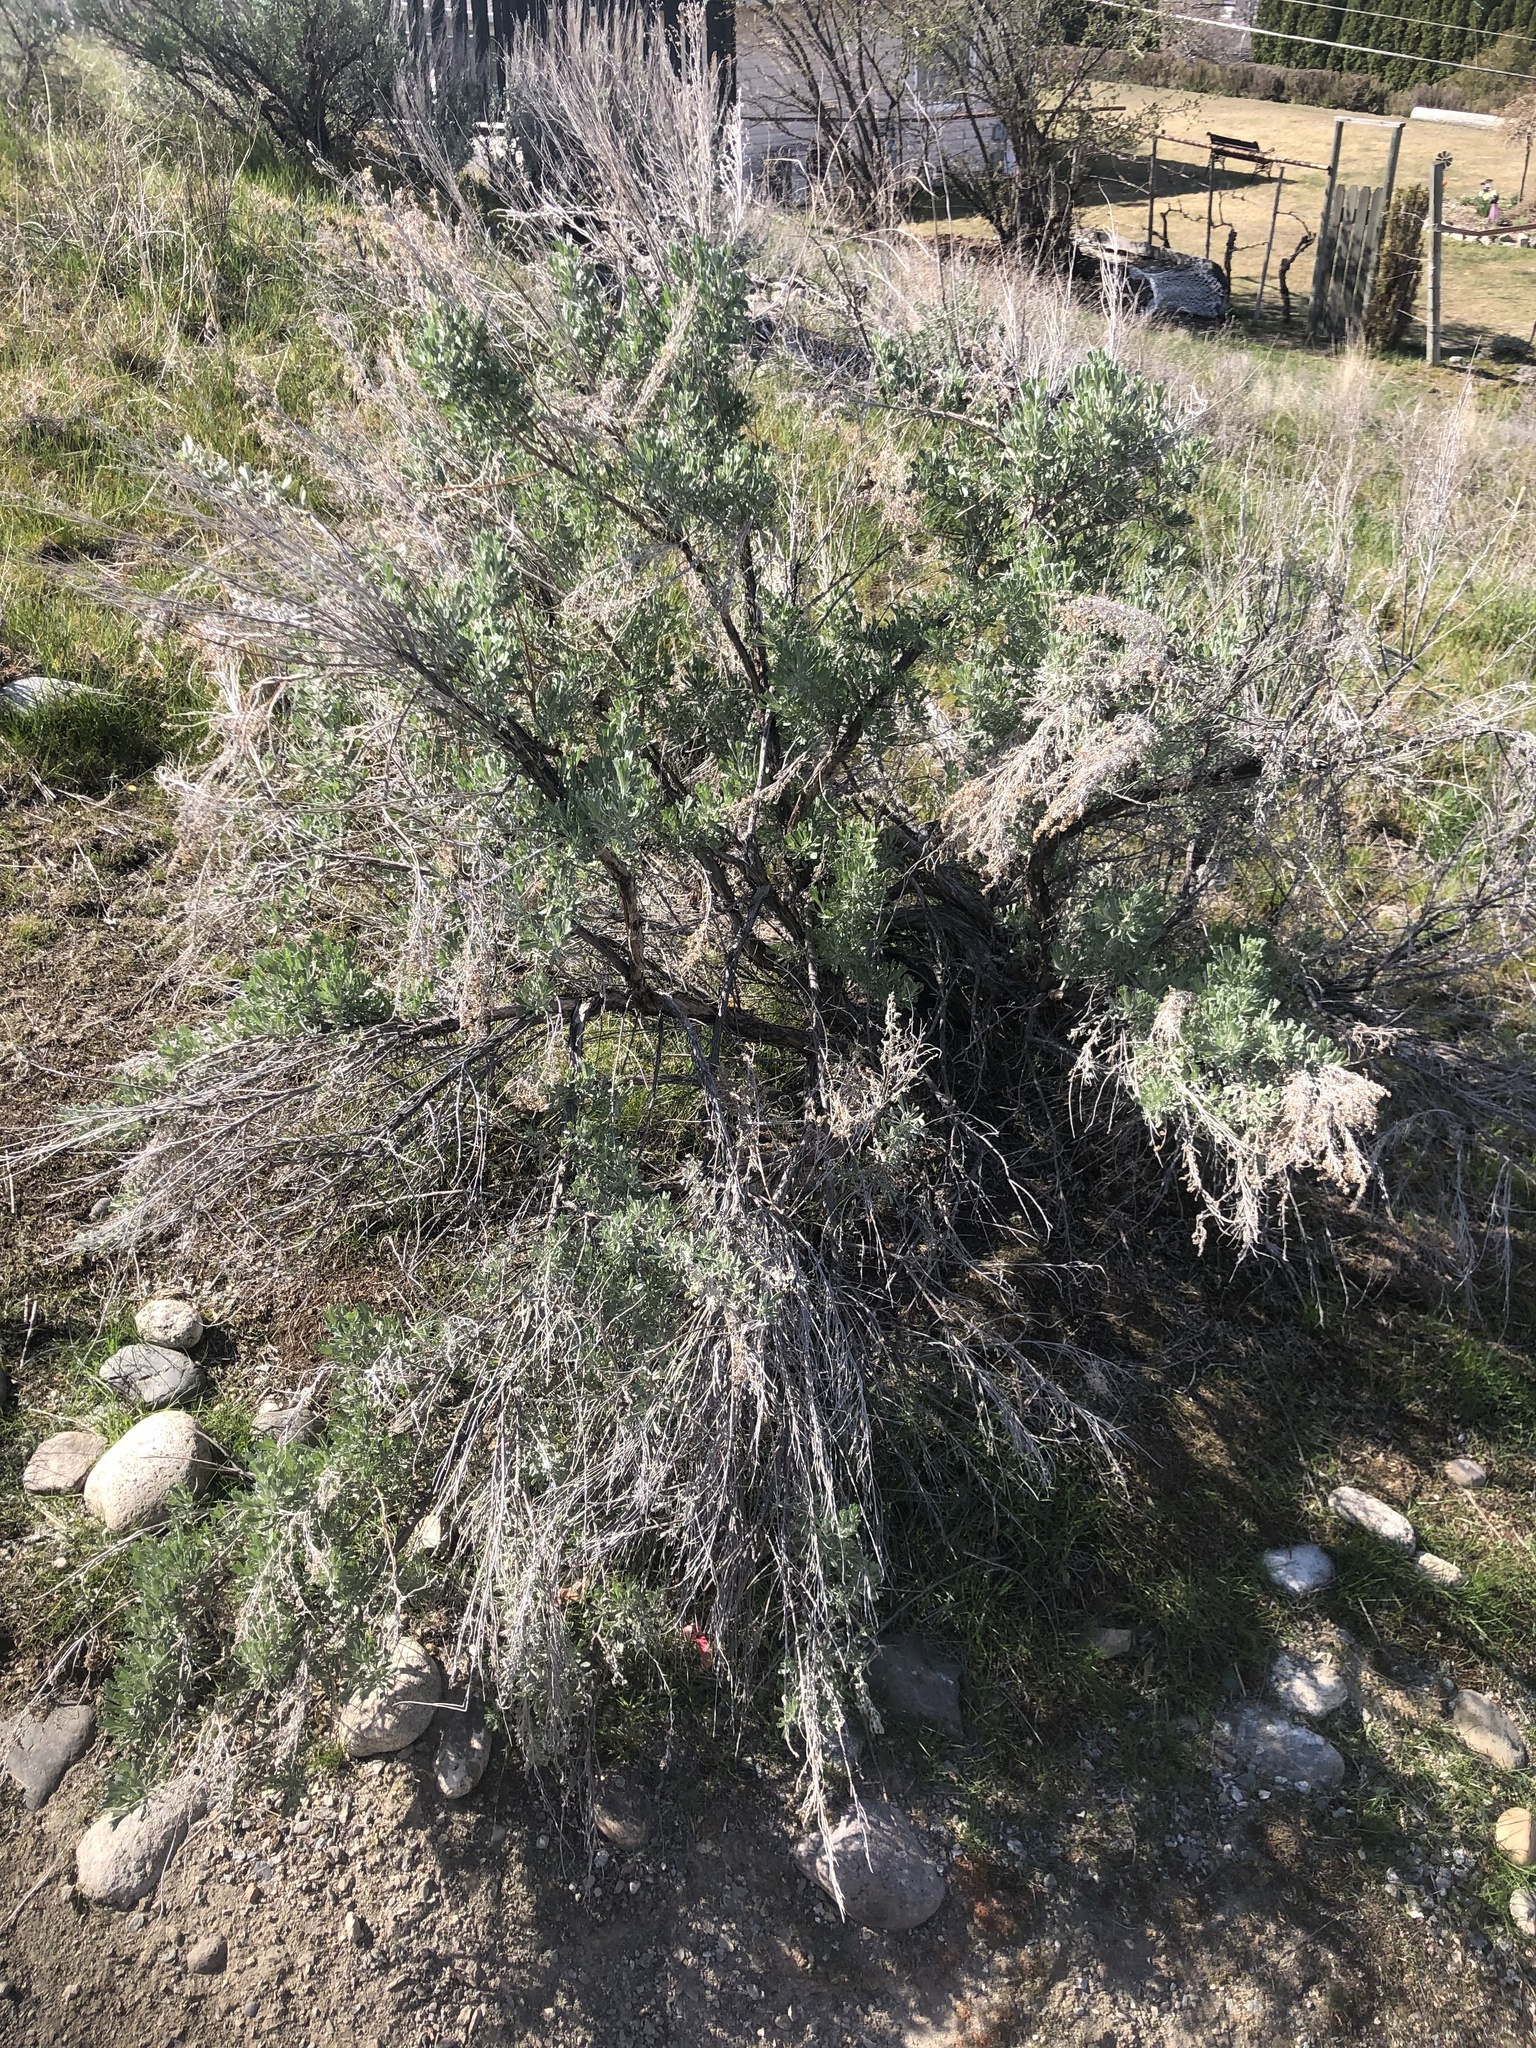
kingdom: Plantae
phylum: Tracheophyta
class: Magnoliopsida
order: Asterales
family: Asteraceae
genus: Artemisia
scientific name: Artemisia tridentata
